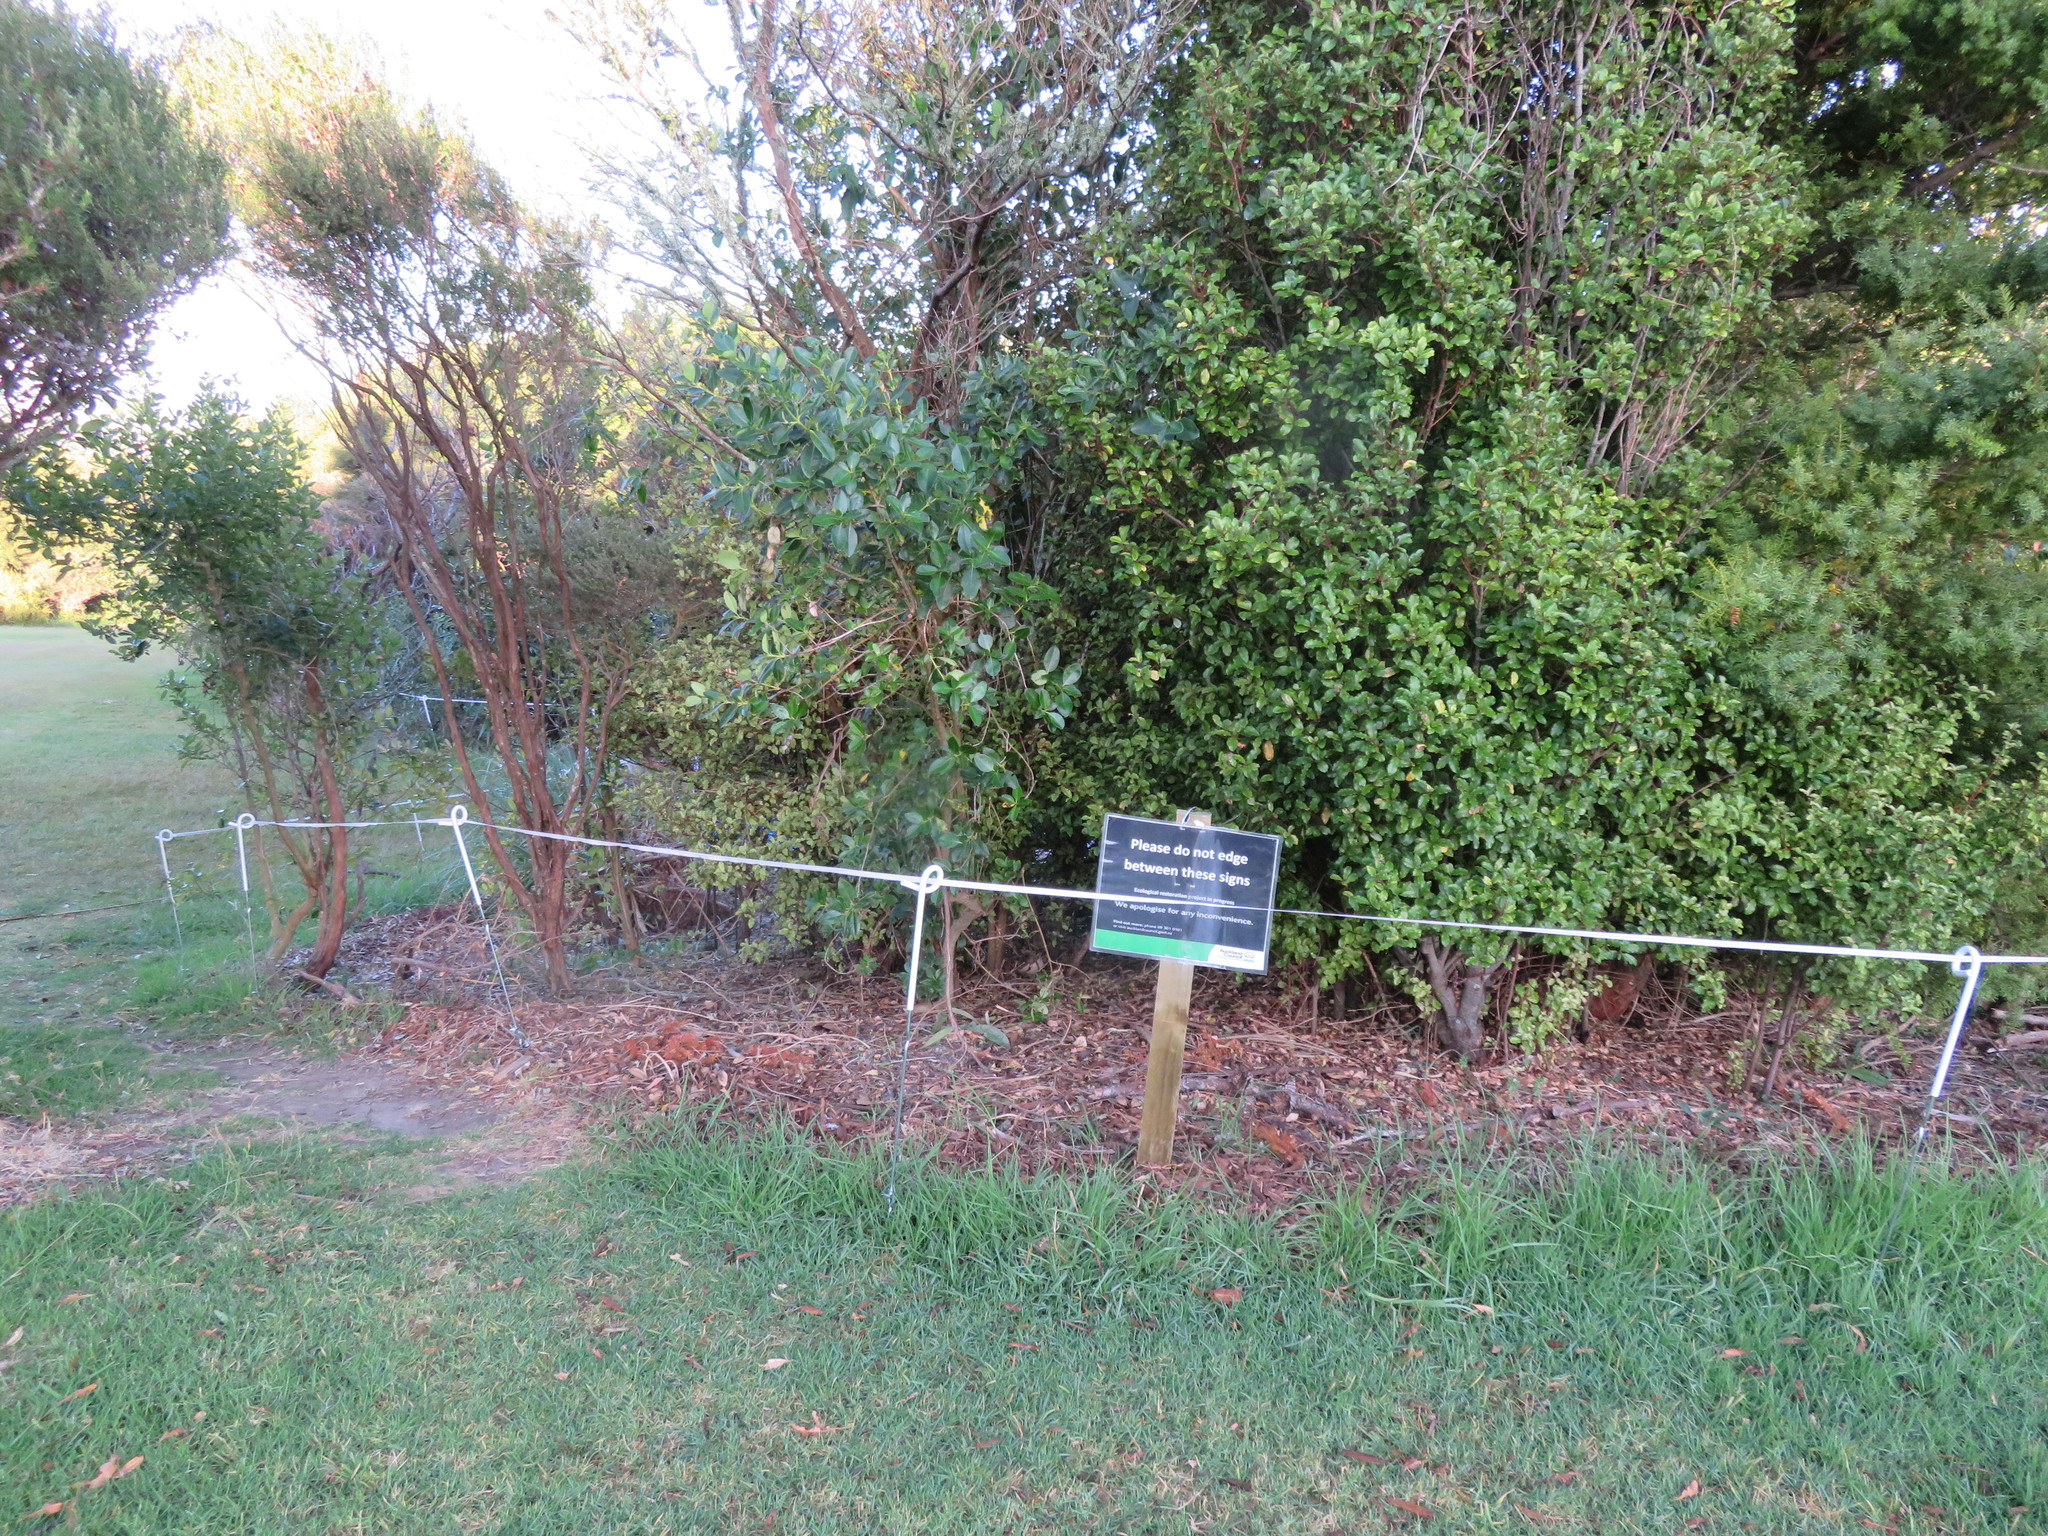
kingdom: Plantae
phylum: Tracheophyta
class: Liliopsida
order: Poales
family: Poaceae
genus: Cenchrus
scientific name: Cenchrus clandestinus
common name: Kikuyugrass
